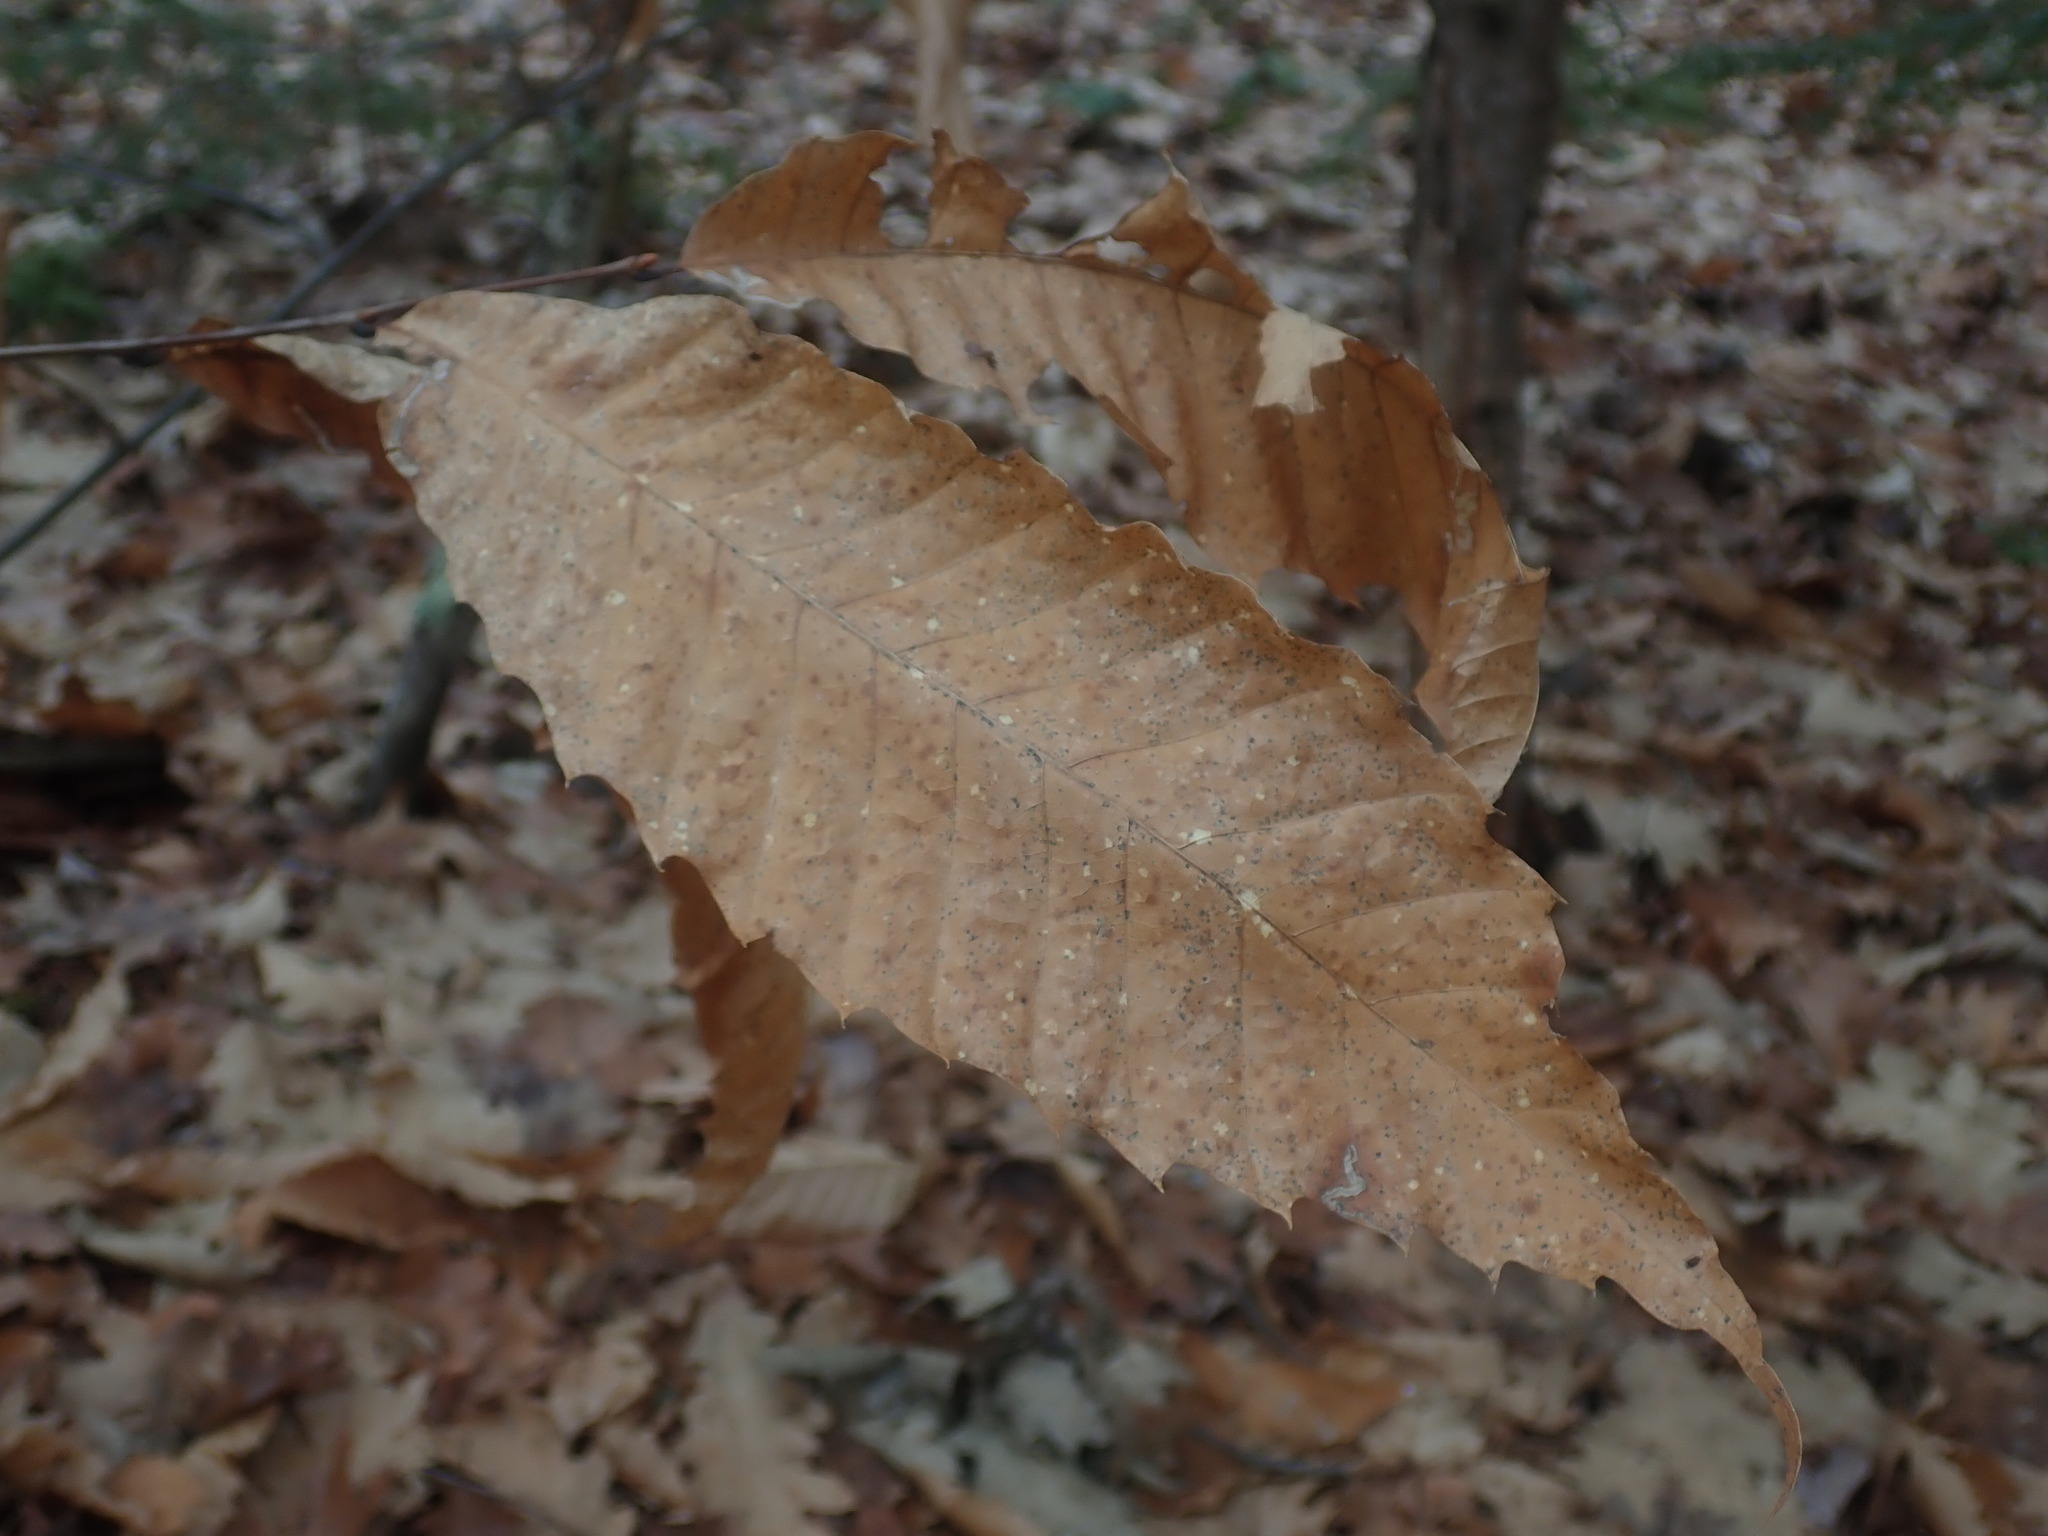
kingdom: Plantae
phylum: Tracheophyta
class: Magnoliopsida
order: Fagales
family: Fagaceae
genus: Castanea
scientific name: Castanea dentata
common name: American chestnut
